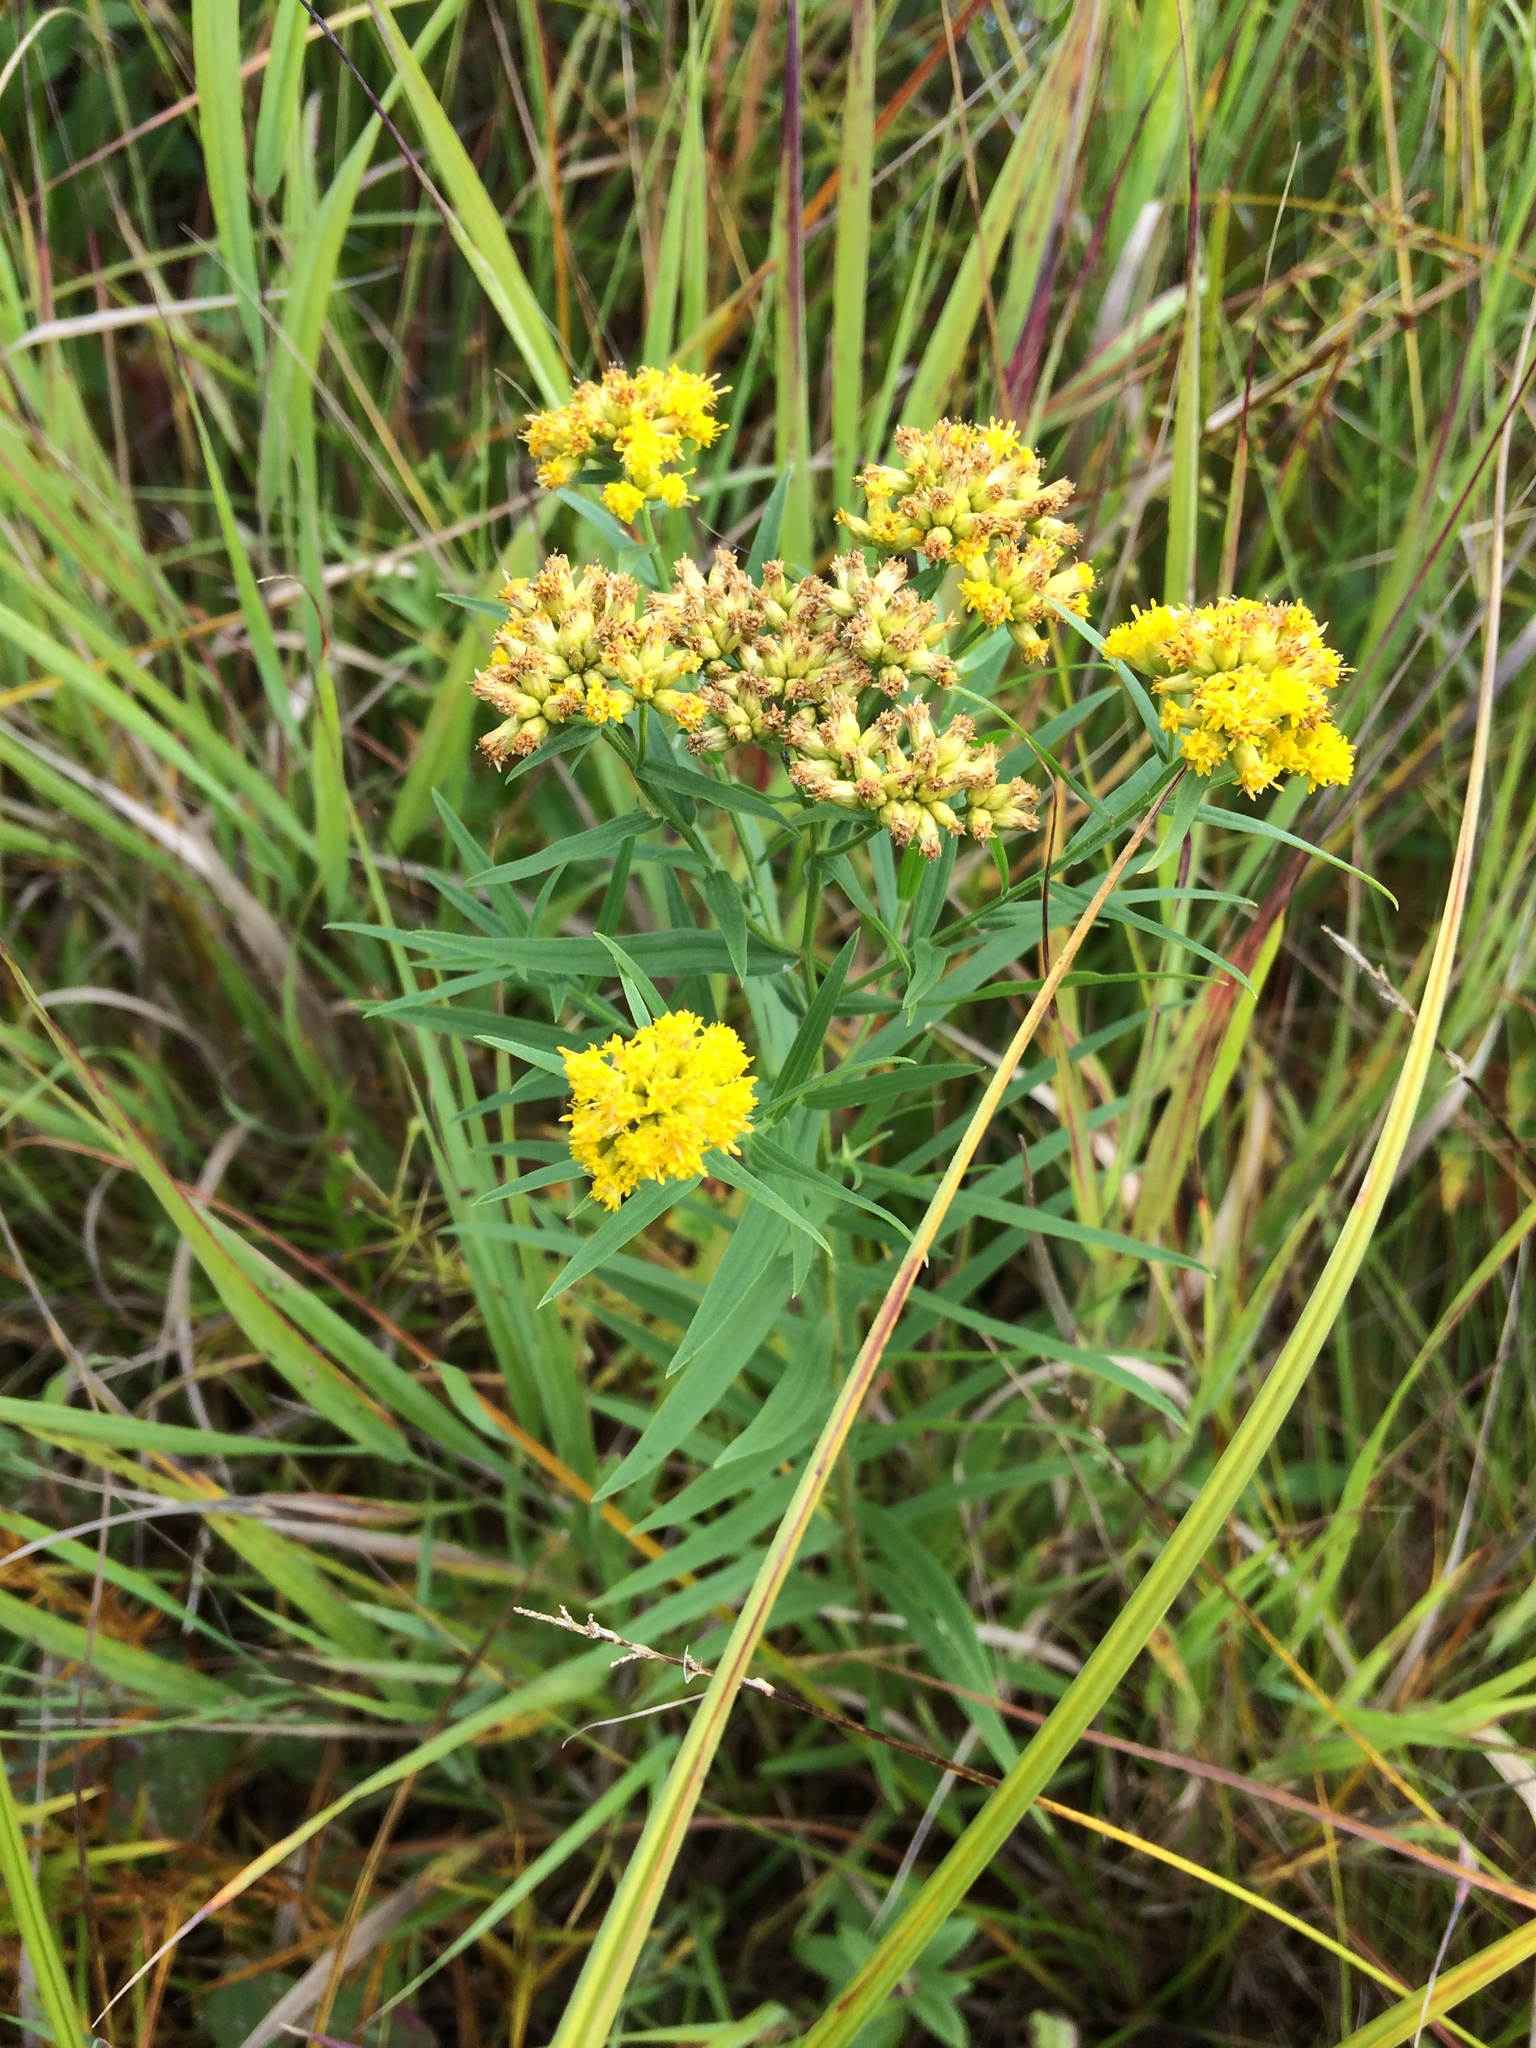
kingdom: Plantae
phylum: Tracheophyta
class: Magnoliopsida
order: Asterales
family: Asteraceae
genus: Euthamia
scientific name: Euthamia graminifolia
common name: Common goldentop
